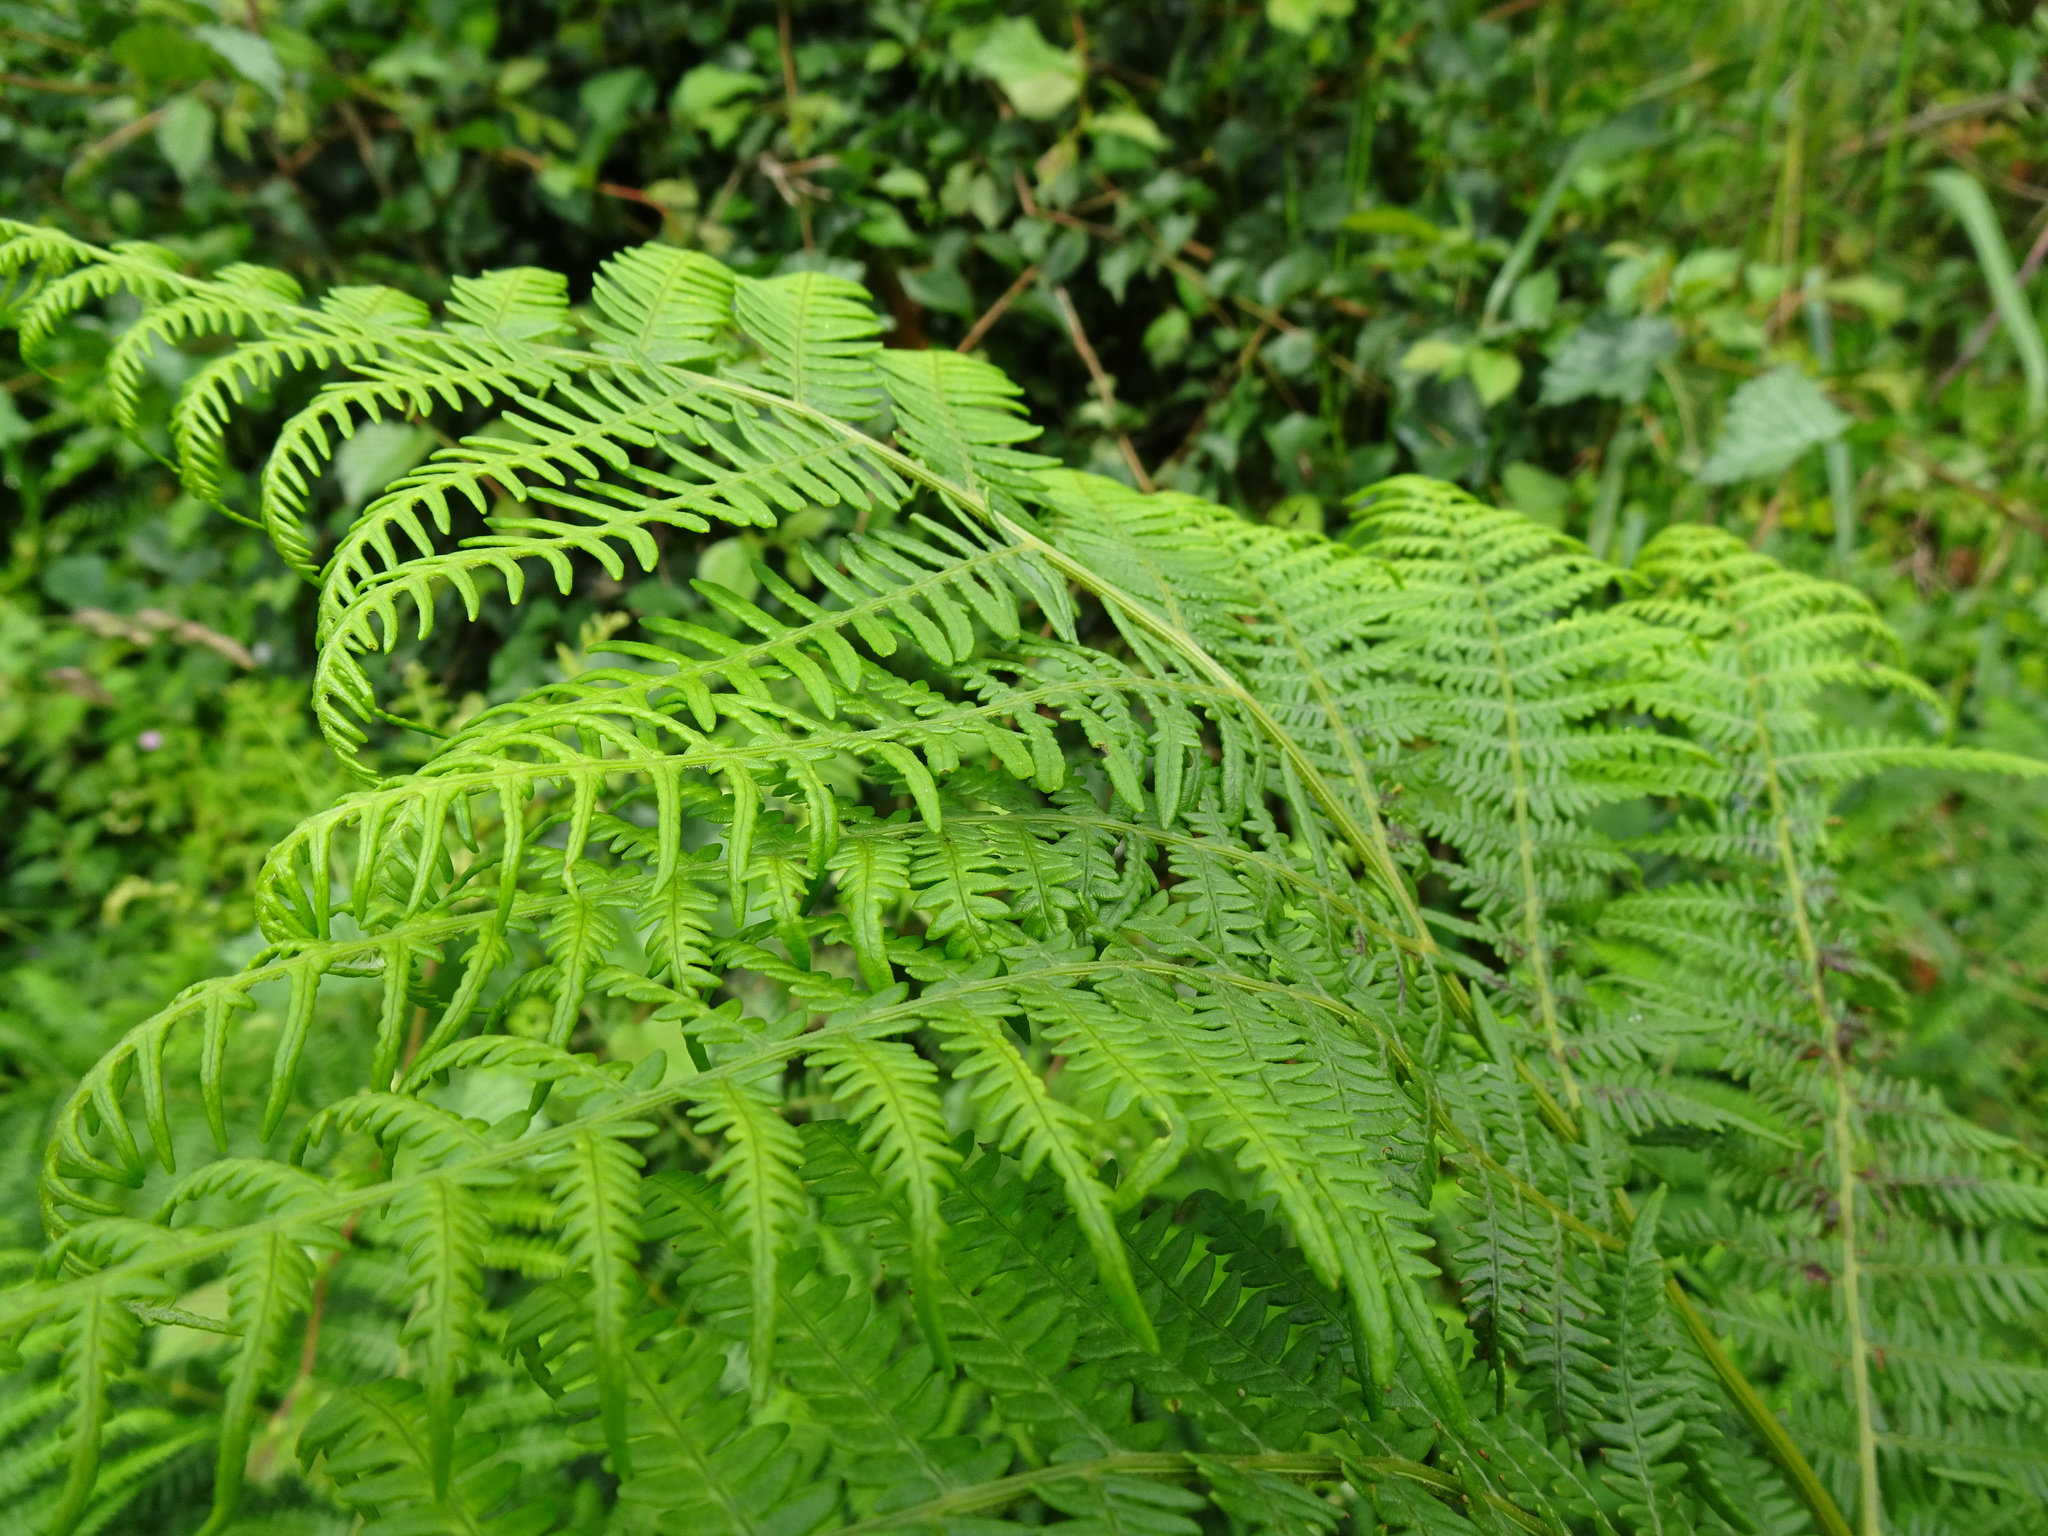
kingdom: Plantae
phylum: Tracheophyta
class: Polypodiopsida
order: Polypodiales
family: Dennstaedtiaceae
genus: Pteridium
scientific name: Pteridium aquilinum
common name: Bracken
